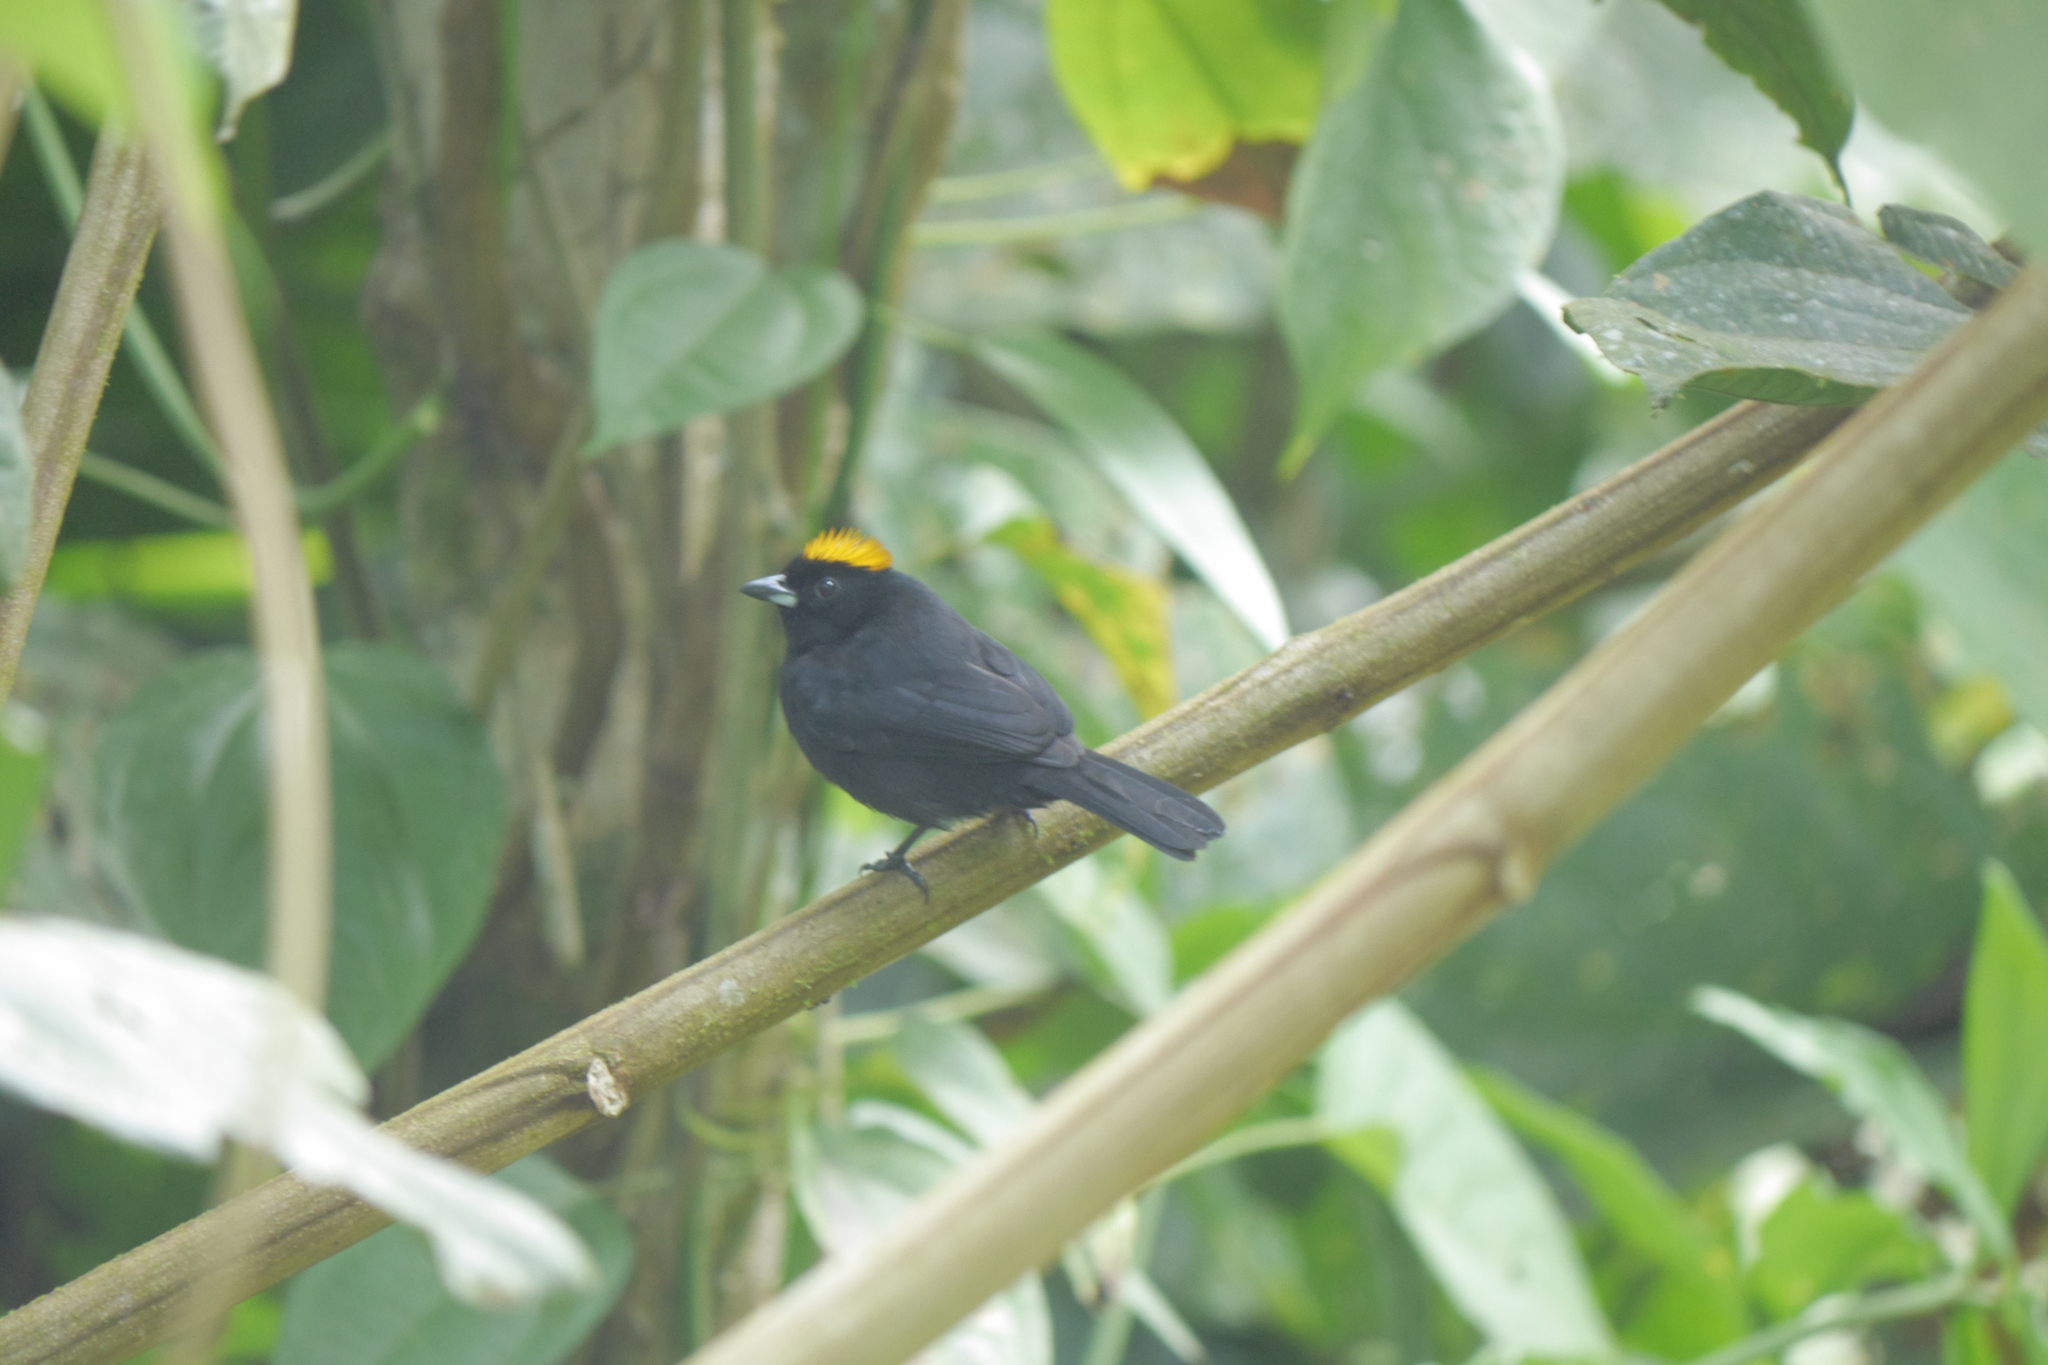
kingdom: Animalia
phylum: Chordata
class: Aves
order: Passeriformes
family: Thraupidae
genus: Tachyphonus
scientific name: Tachyphonus delatrii
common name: Tawny-crested tanager
